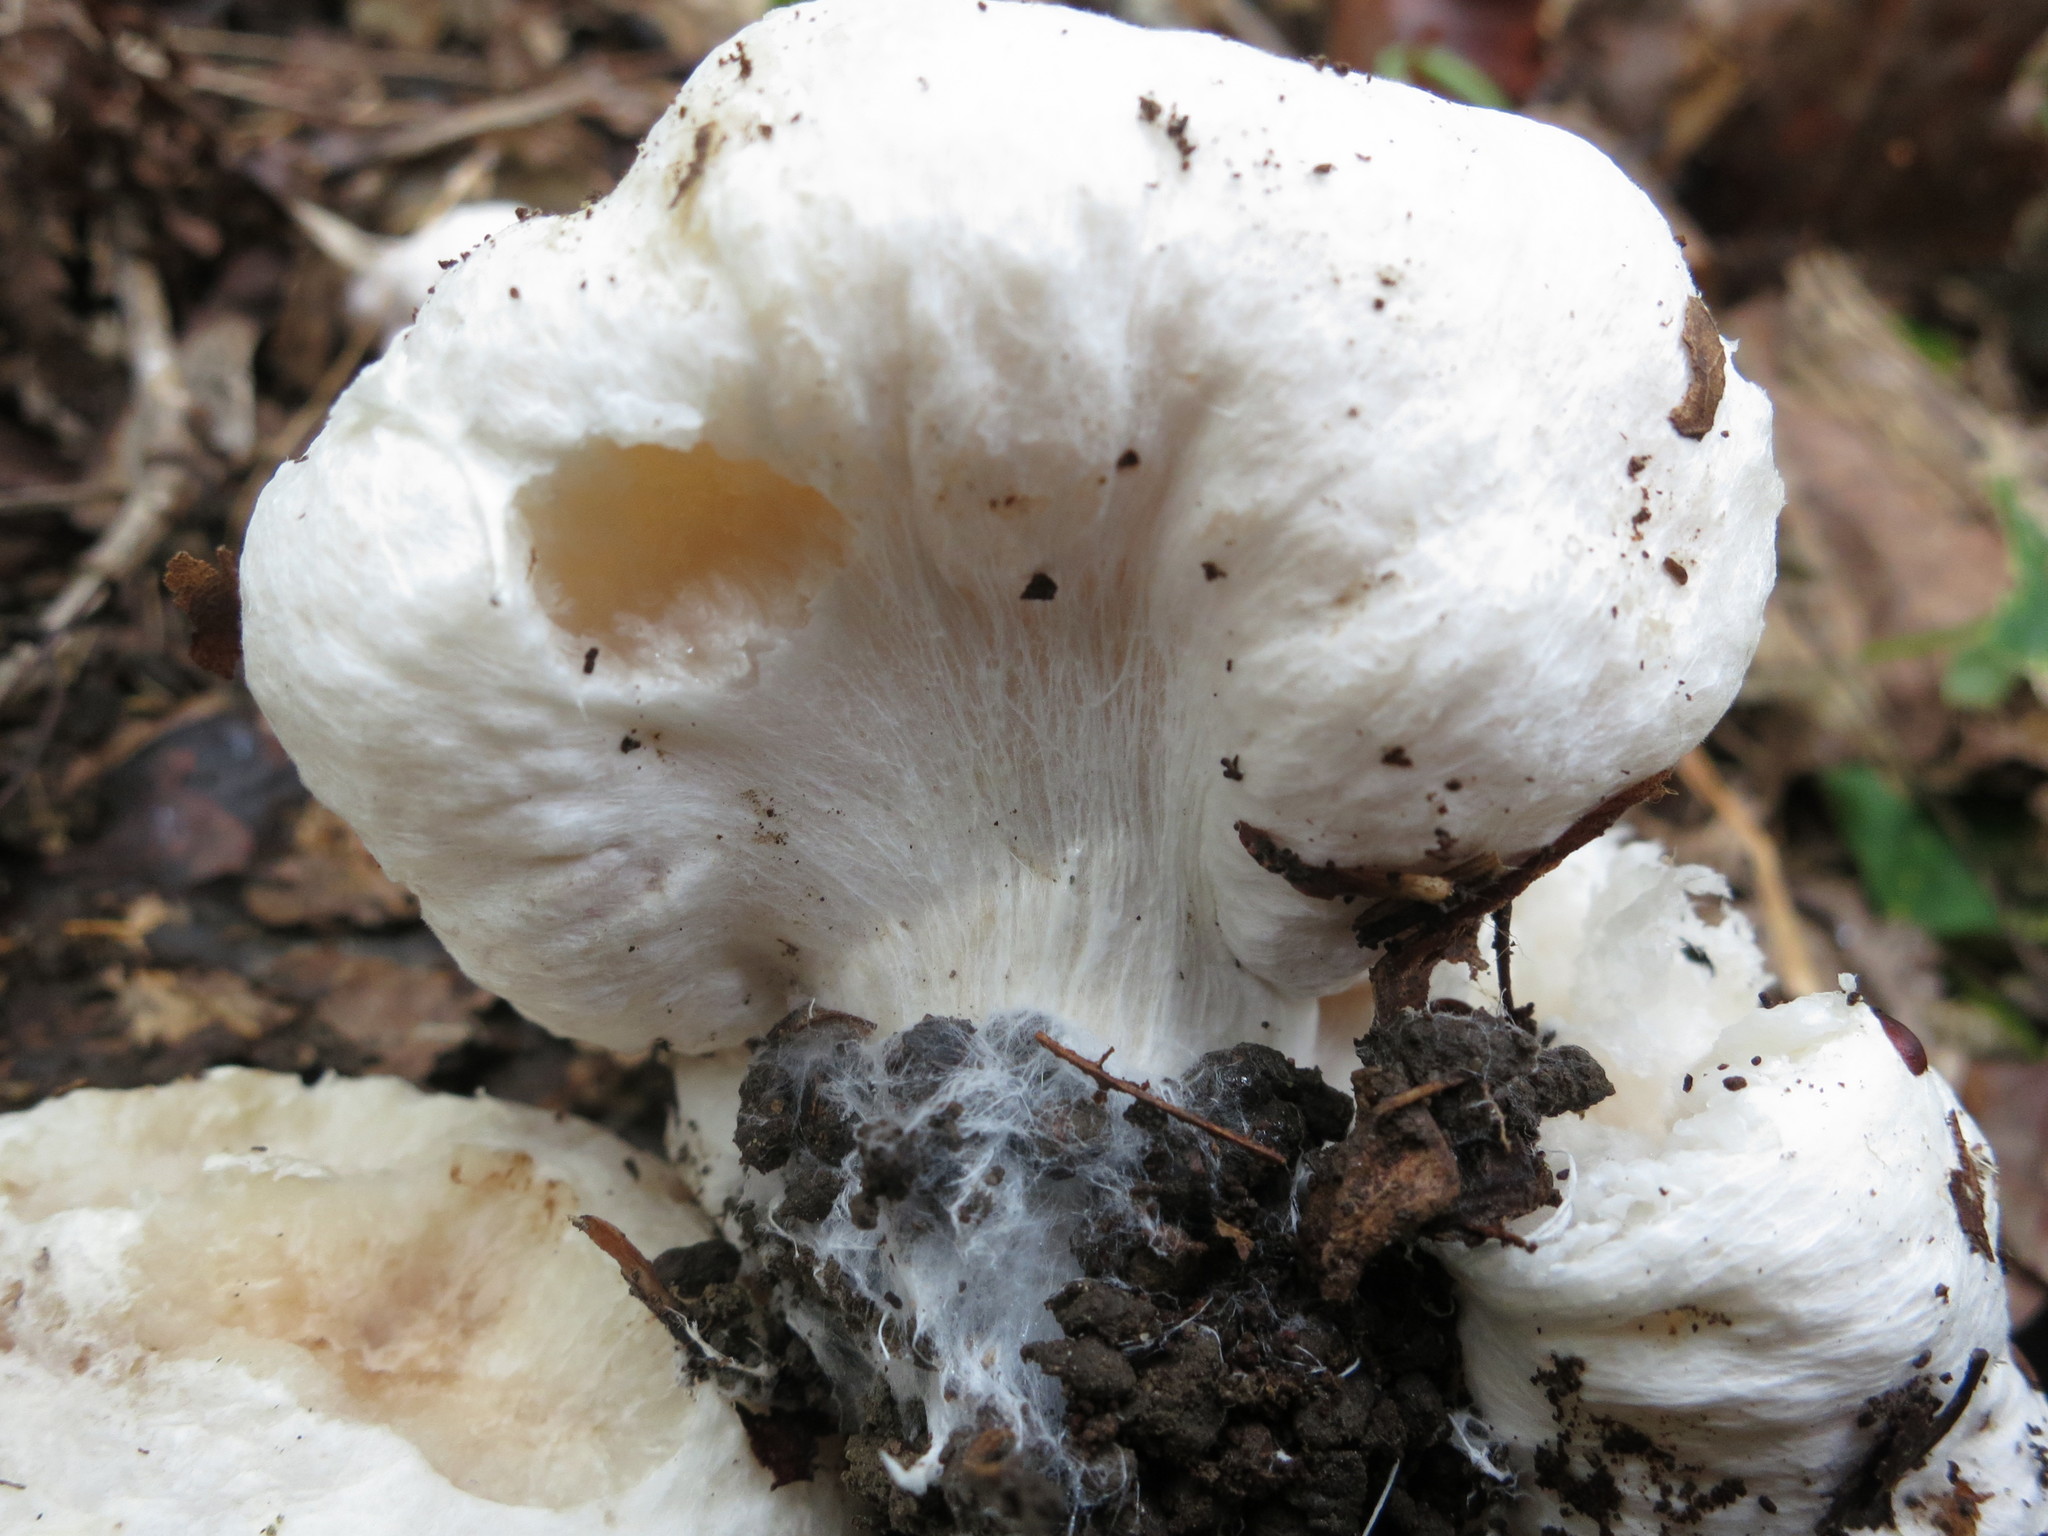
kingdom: Fungi
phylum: Basidiomycota
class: Agaricomycetes
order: Agaricales
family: Entolomataceae
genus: Entoloma
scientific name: Entoloma abortivum
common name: Aborted entoloma
